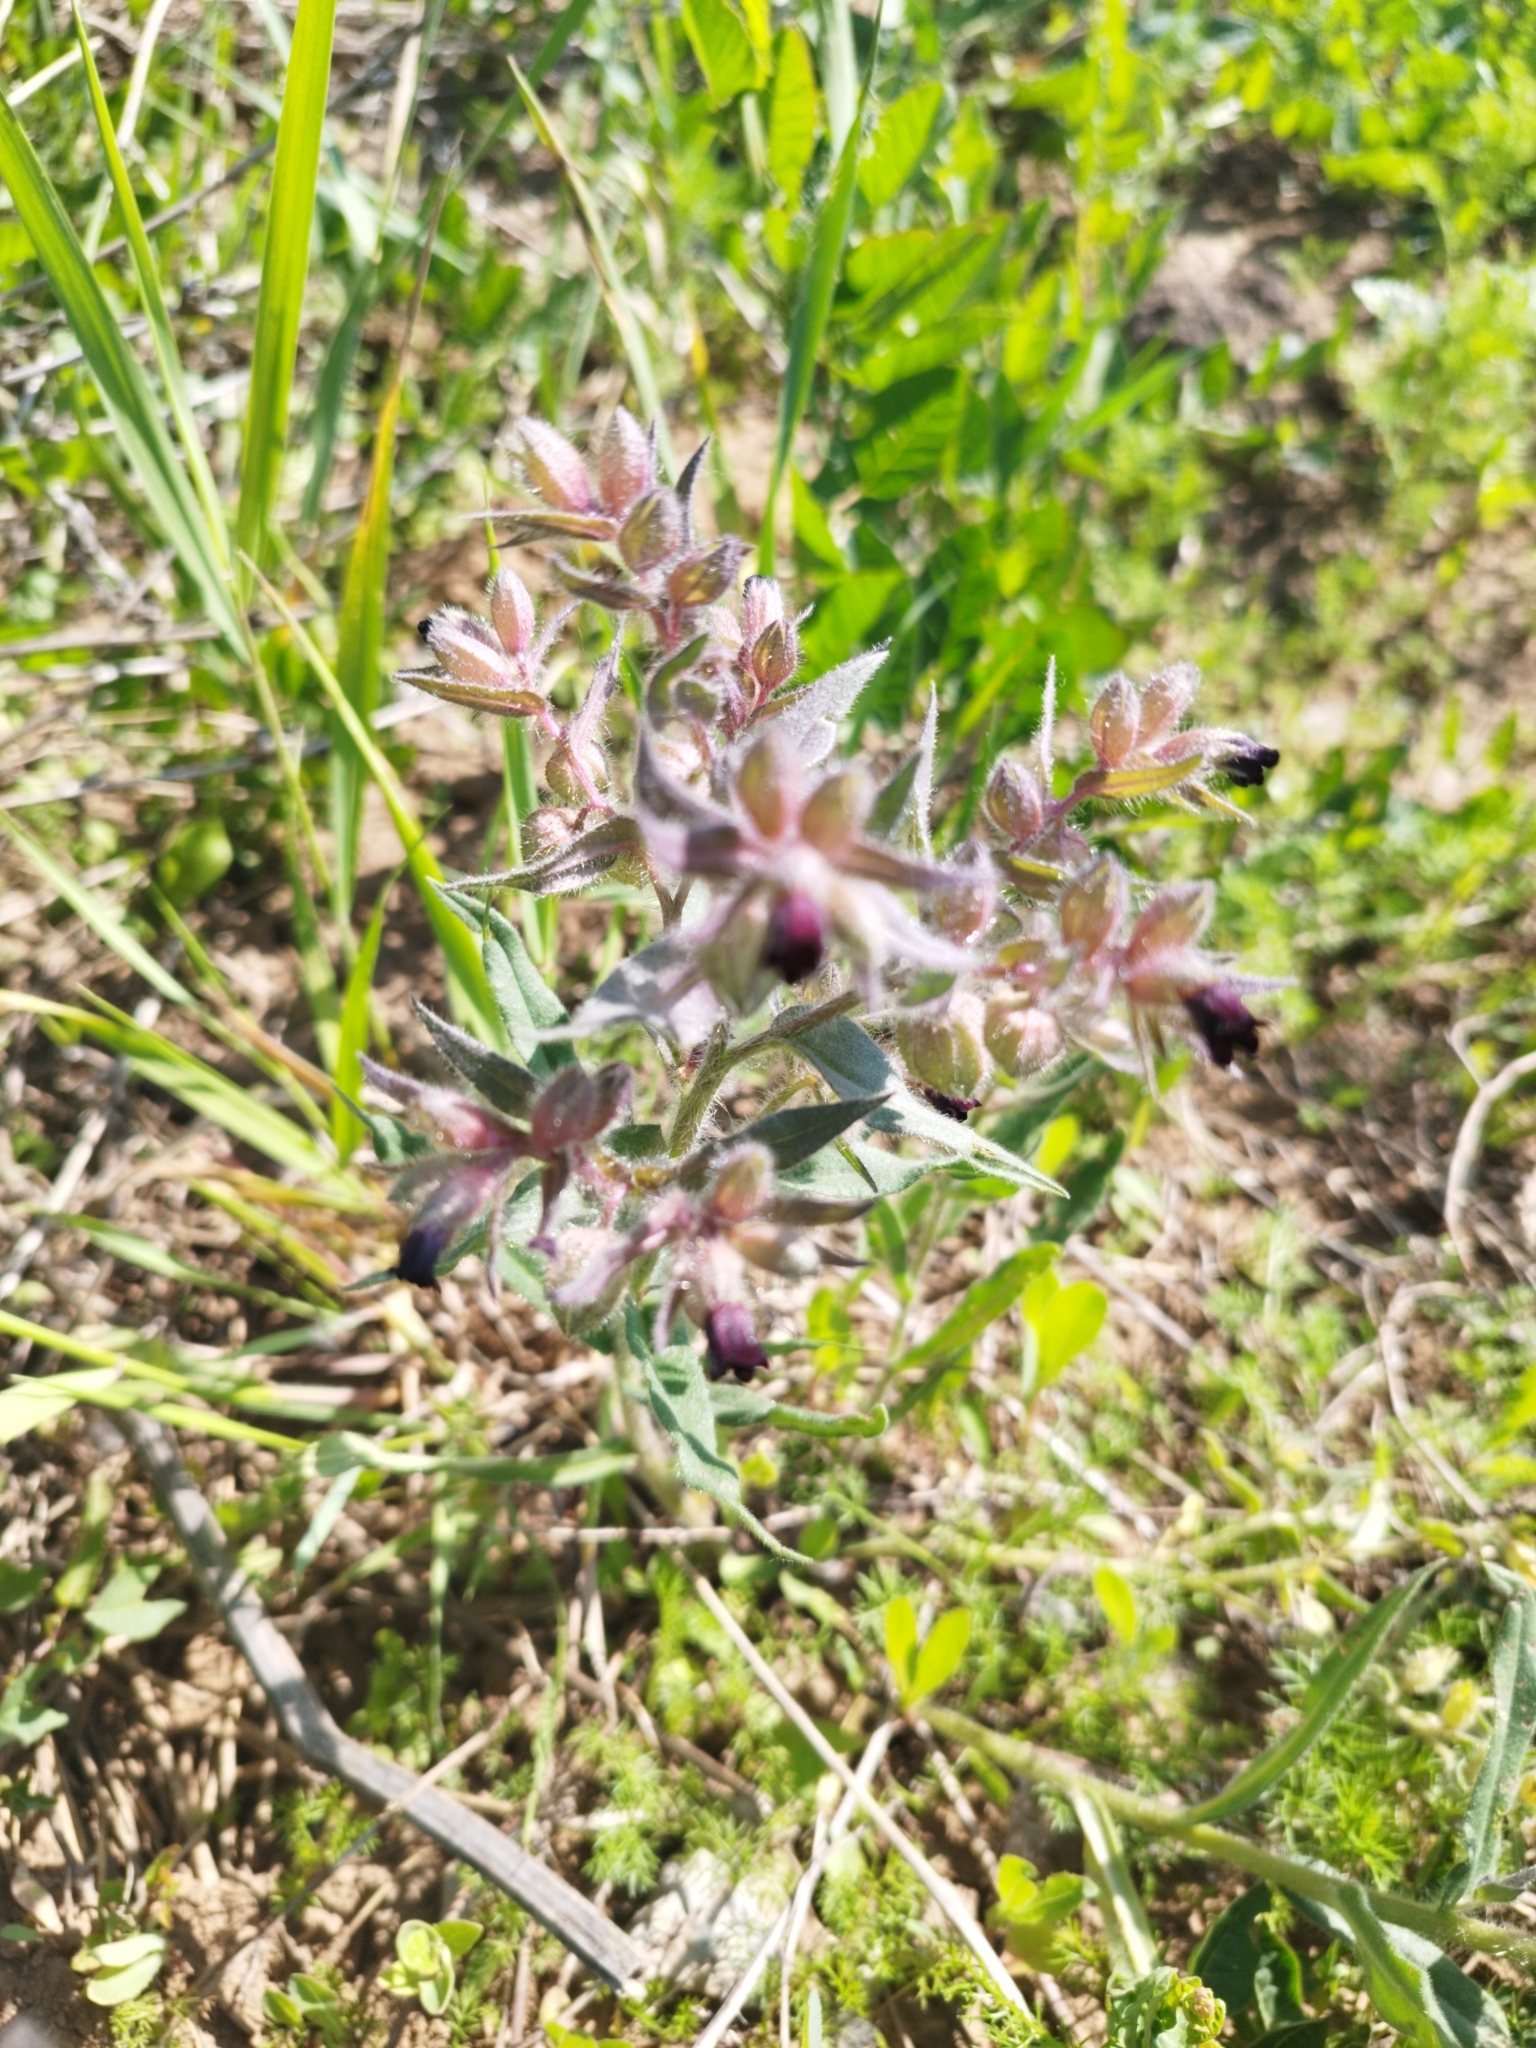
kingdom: Plantae
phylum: Tracheophyta
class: Magnoliopsida
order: Boraginales
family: Boraginaceae
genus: Nonea
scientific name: Nonea pulla
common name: Brown nonea
